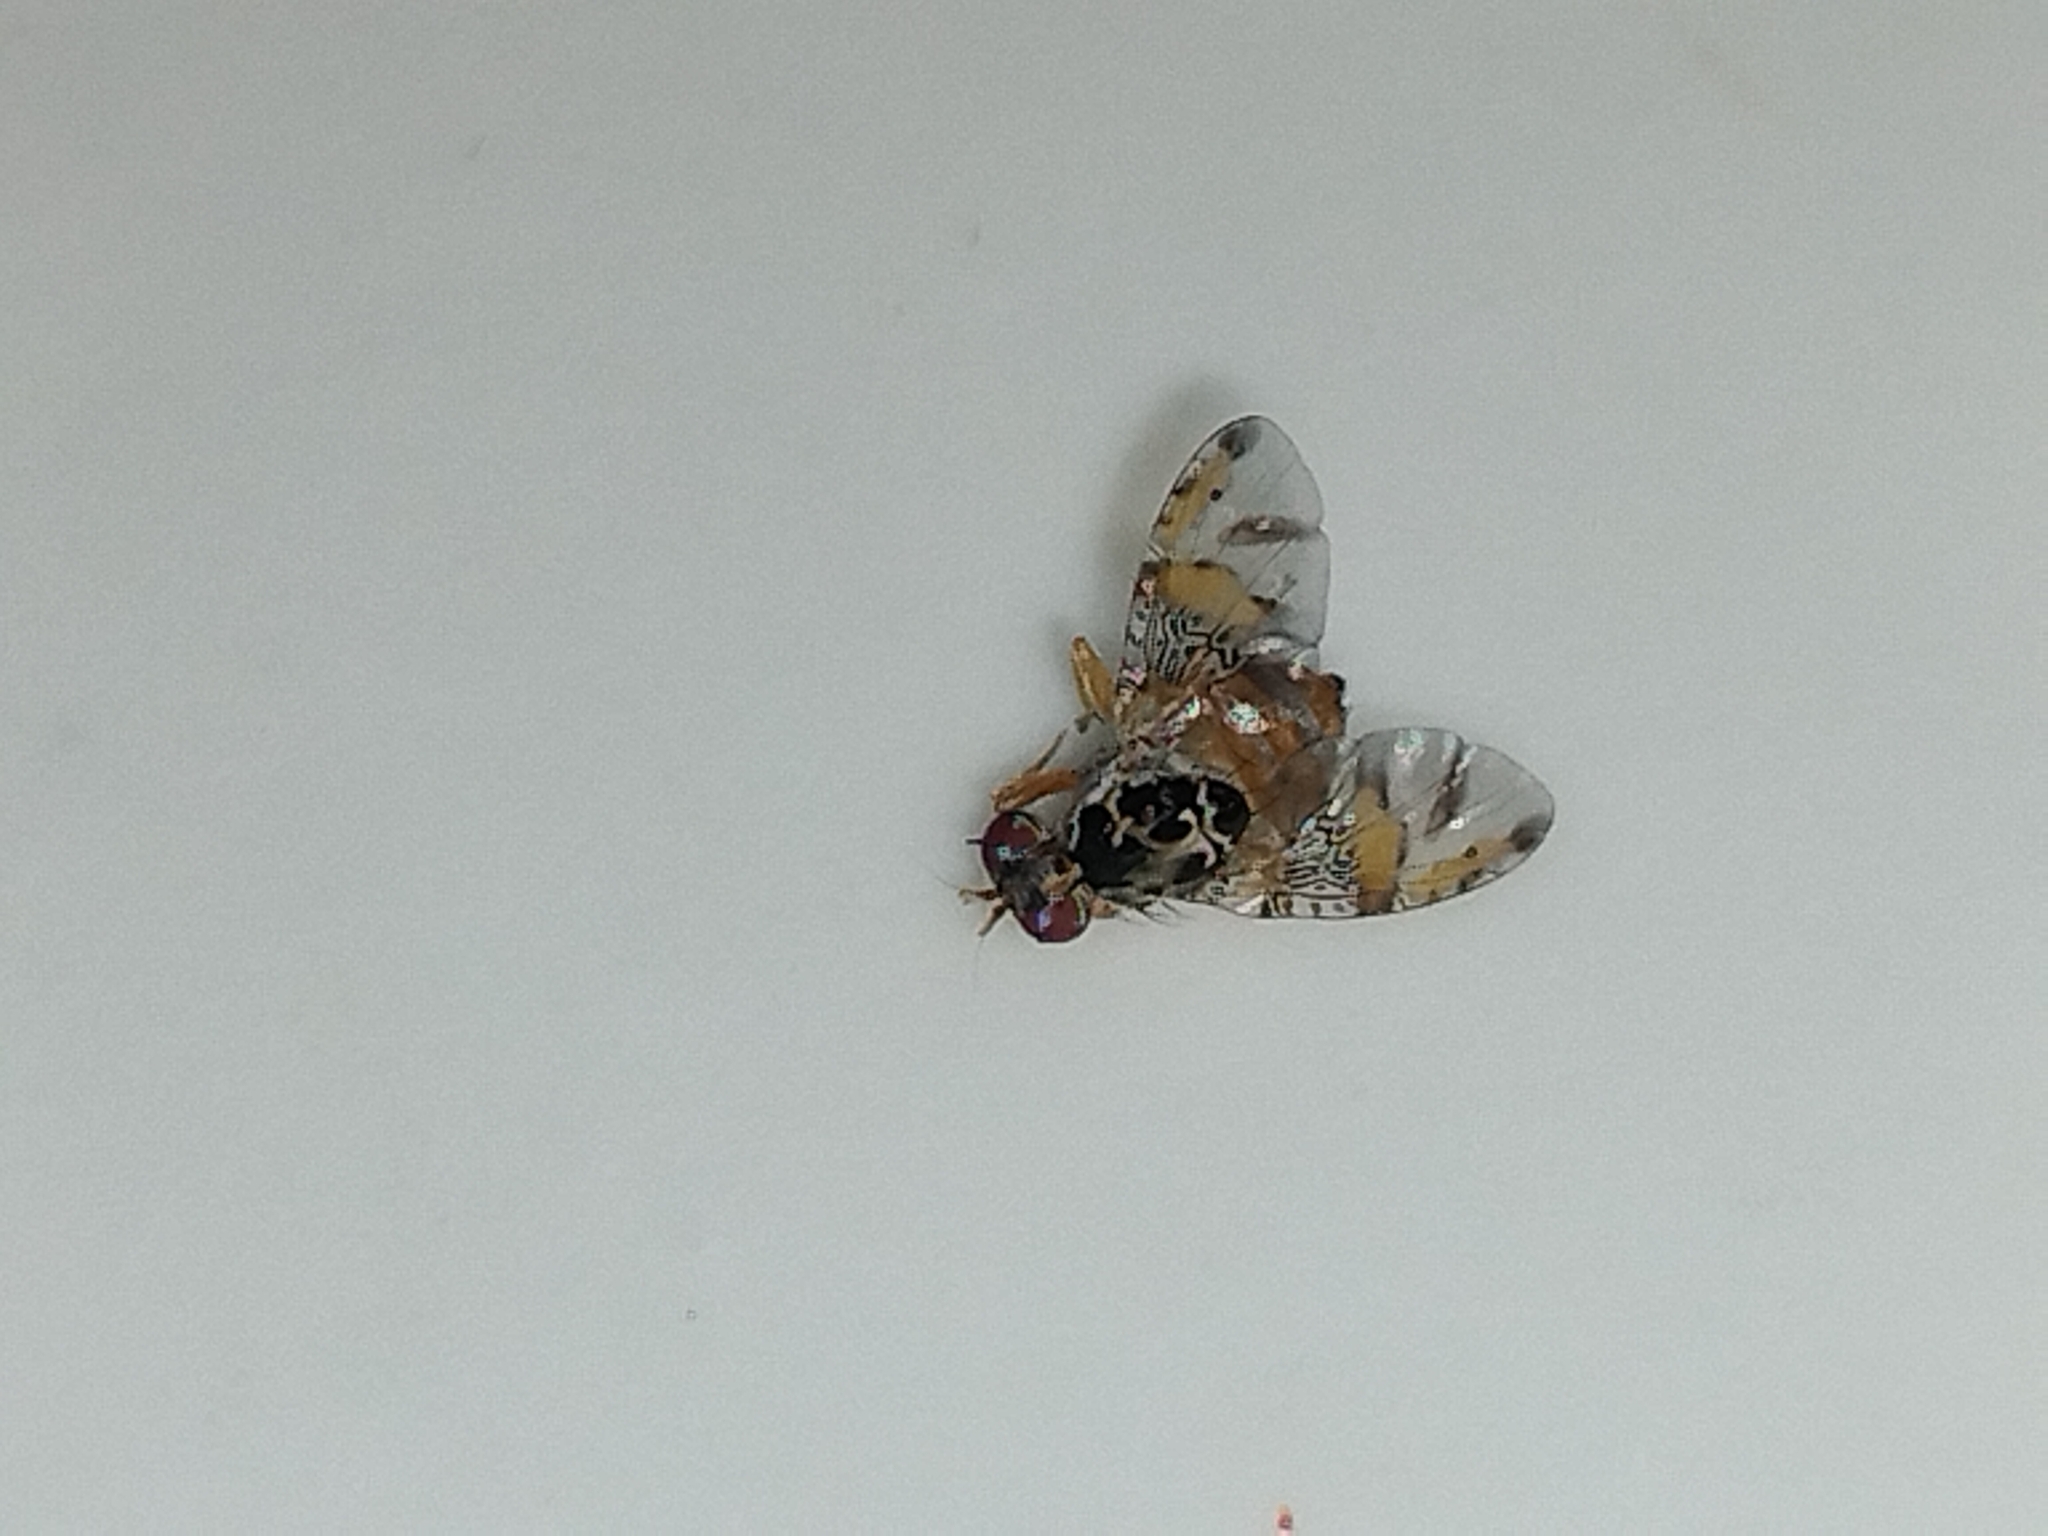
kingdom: Animalia
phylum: Arthropoda
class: Insecta
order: Diptera
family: Tephritidae
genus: Ceratitis
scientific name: Ceratitis capitata
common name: Mediterranean fruit fly
